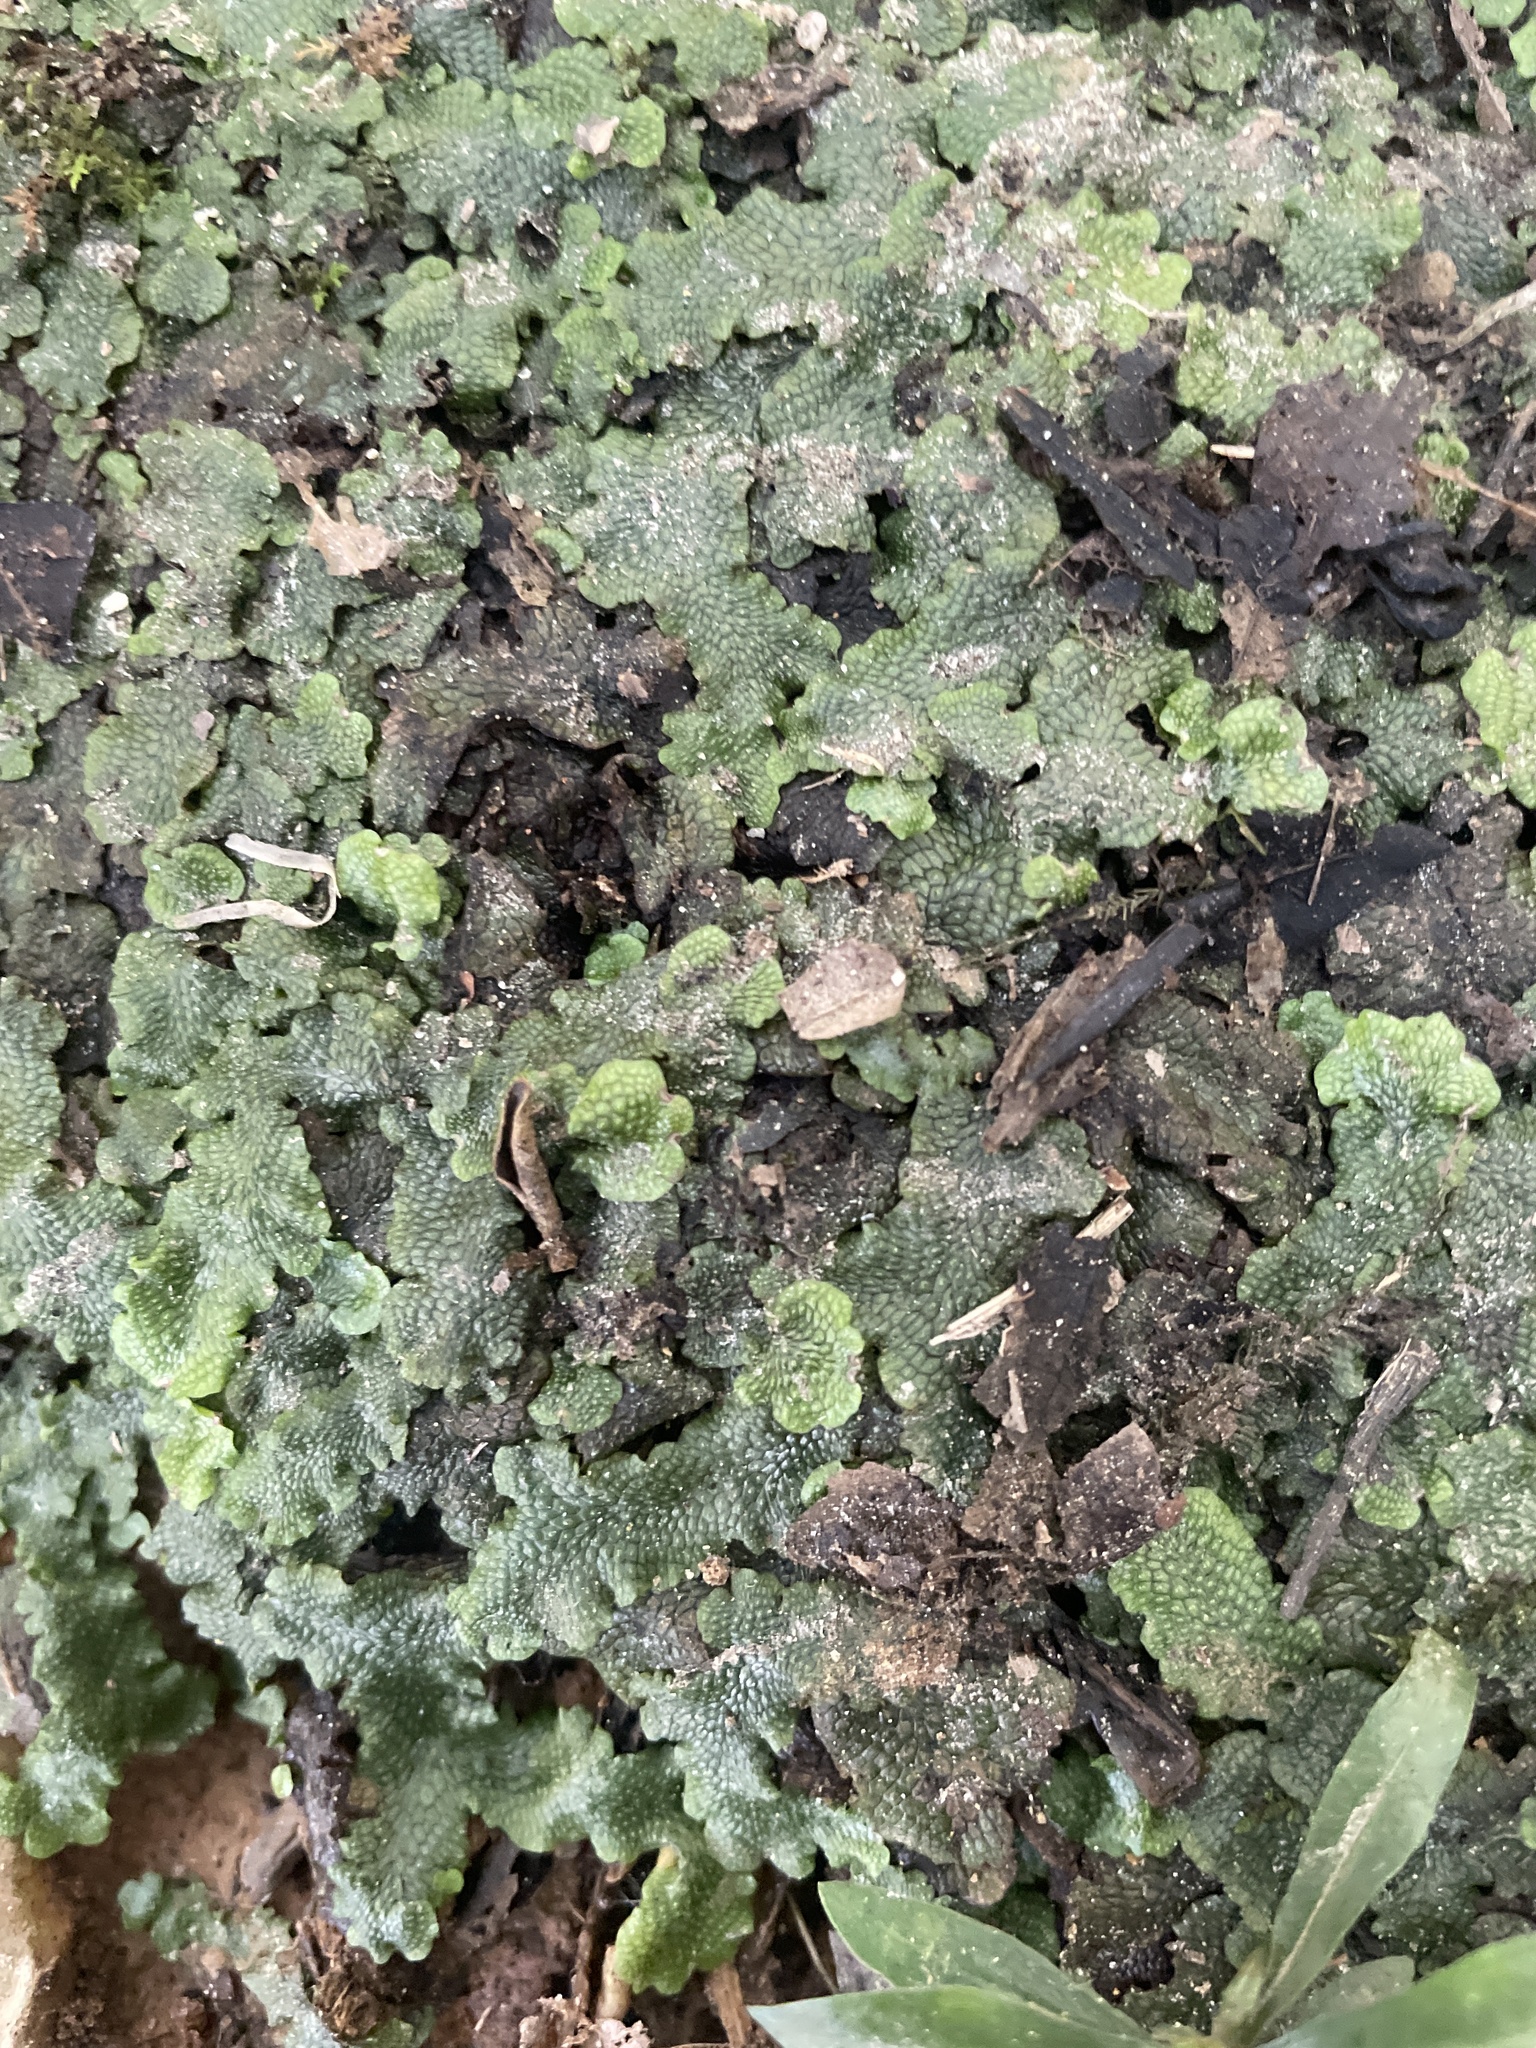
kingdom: Plantae
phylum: Marchantiophyta
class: Marchantiopsida
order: Marchantiales
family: Conocephalaceae
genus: Conocephalum
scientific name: Conocephalum salebrosum
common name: Cat-tongue liverwort
